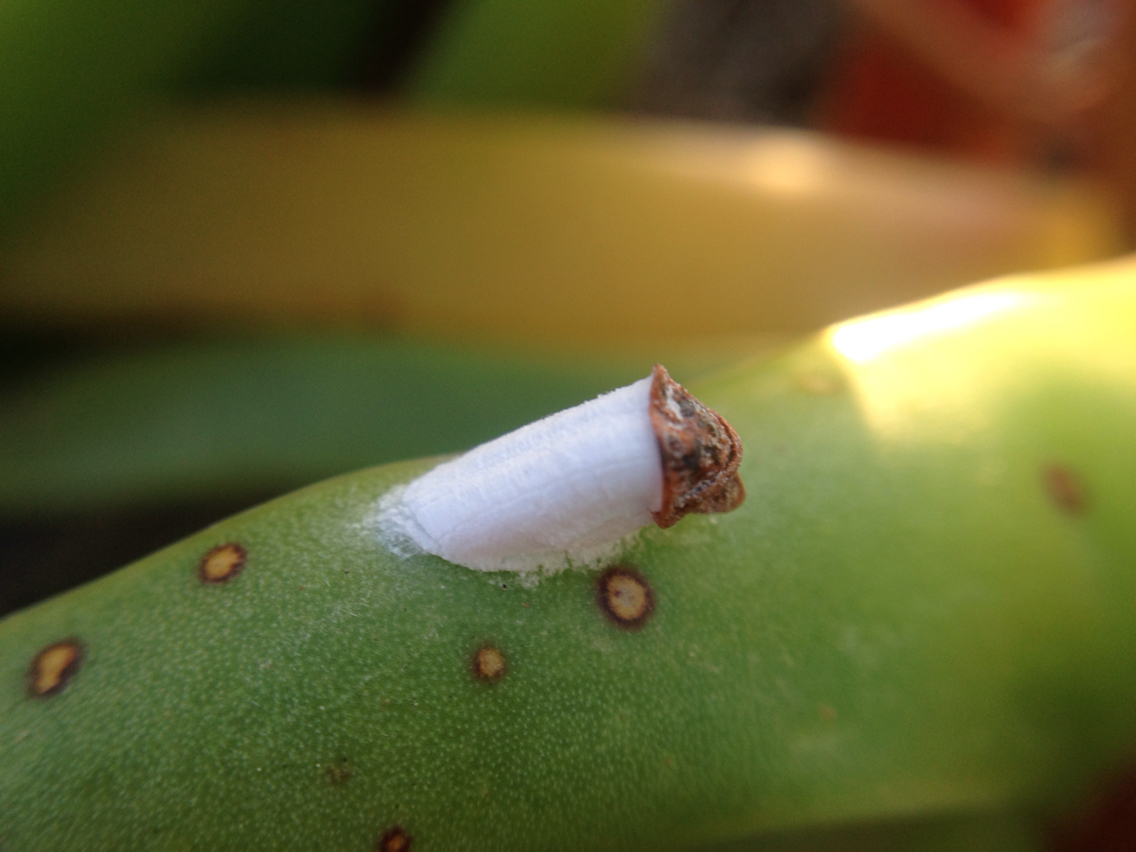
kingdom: Animalia
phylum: Arthropoda
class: Insecta
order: Hemiptera
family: Coccidae
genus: Pulvinariella
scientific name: Pulvinariella mesembryanthemi
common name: Cottony pigface scale
